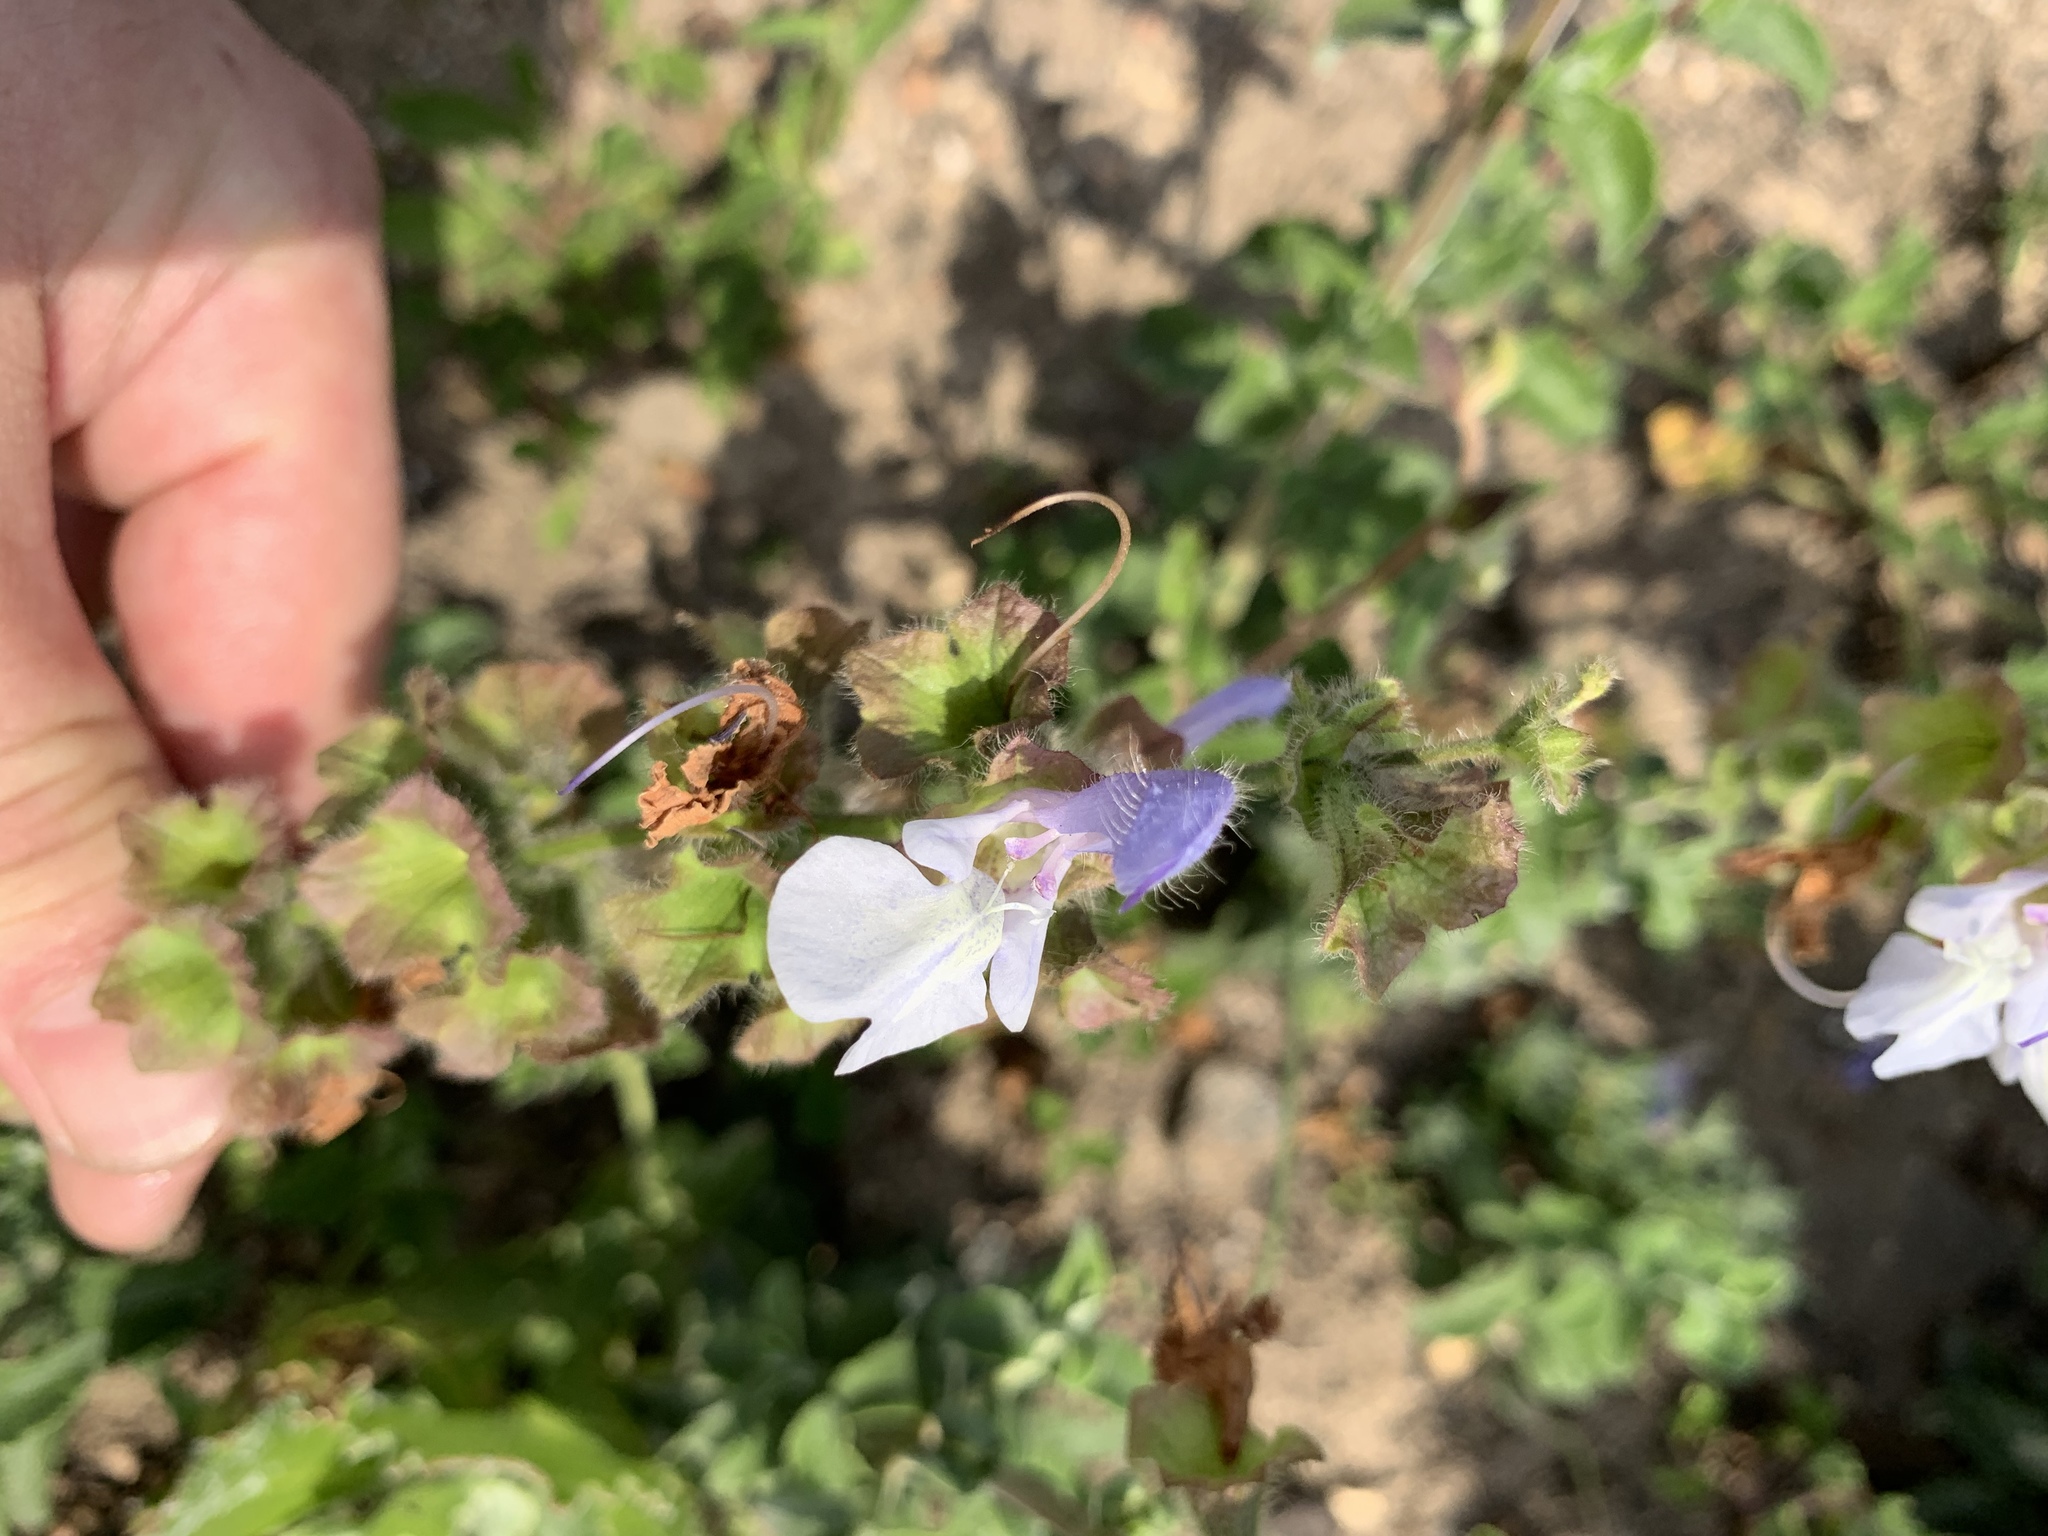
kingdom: Plantae
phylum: Tracheophyta
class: Magnoliopsida
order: Lamiales
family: Lamiaceae
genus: Salvia
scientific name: Salvia africana
